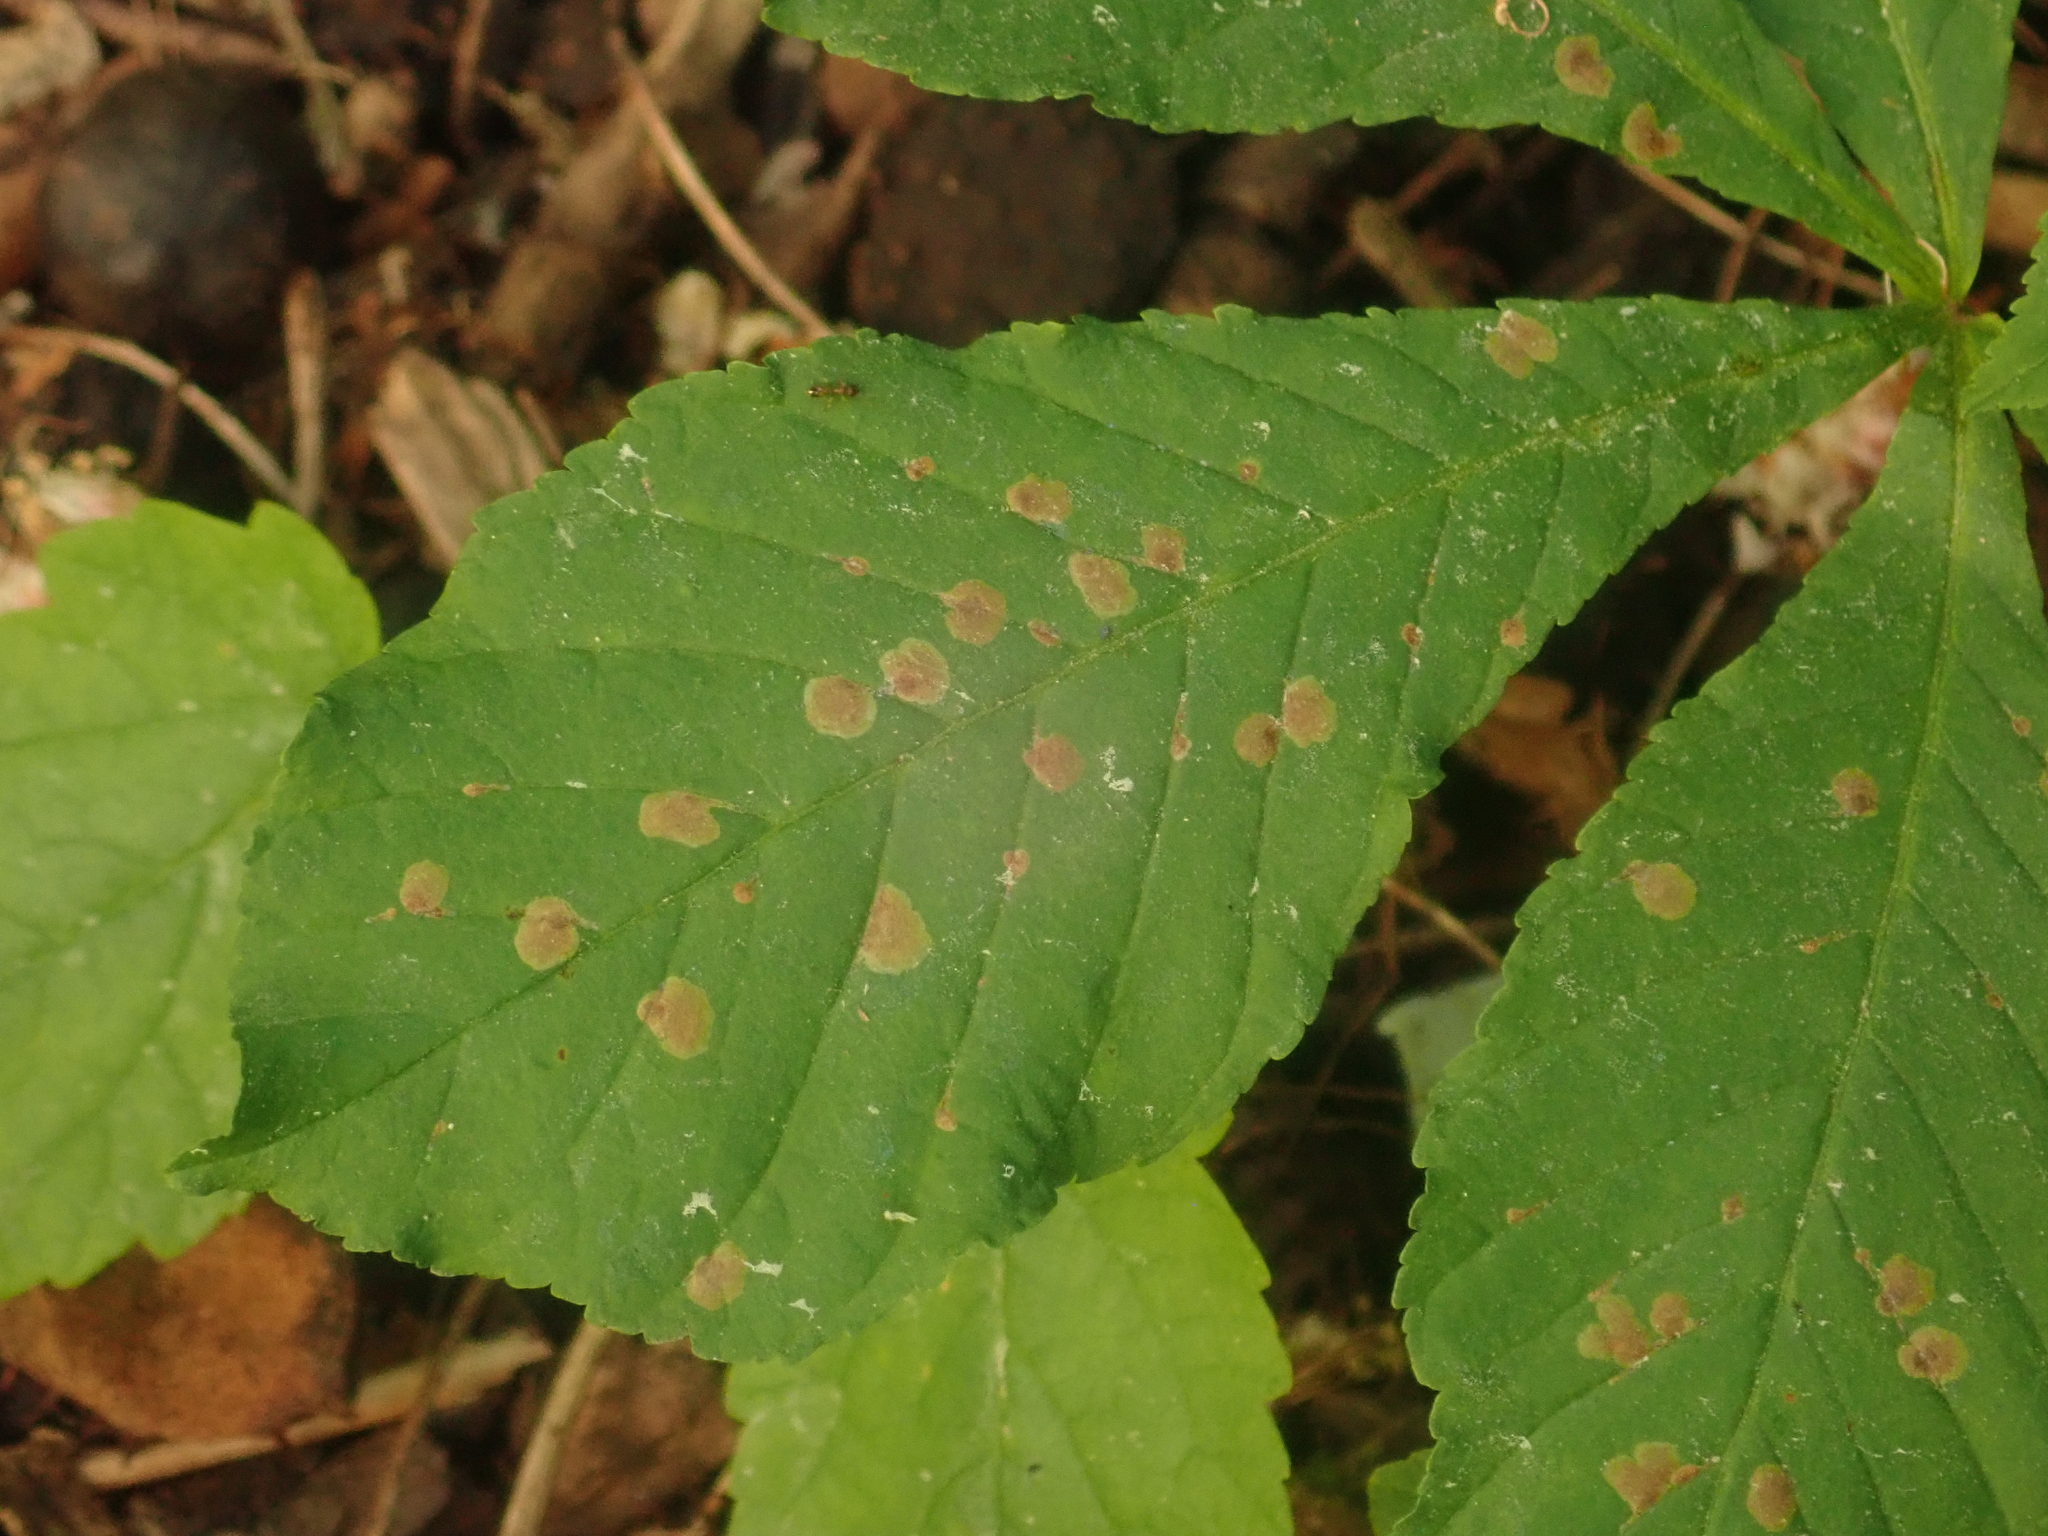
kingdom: Animalia
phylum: Arthropoda
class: Insecta
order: Lepidoptera
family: Gracillariidae
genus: Cameraria
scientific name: Cameraria ohridella
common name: Horse-chestnut leaf-miner
